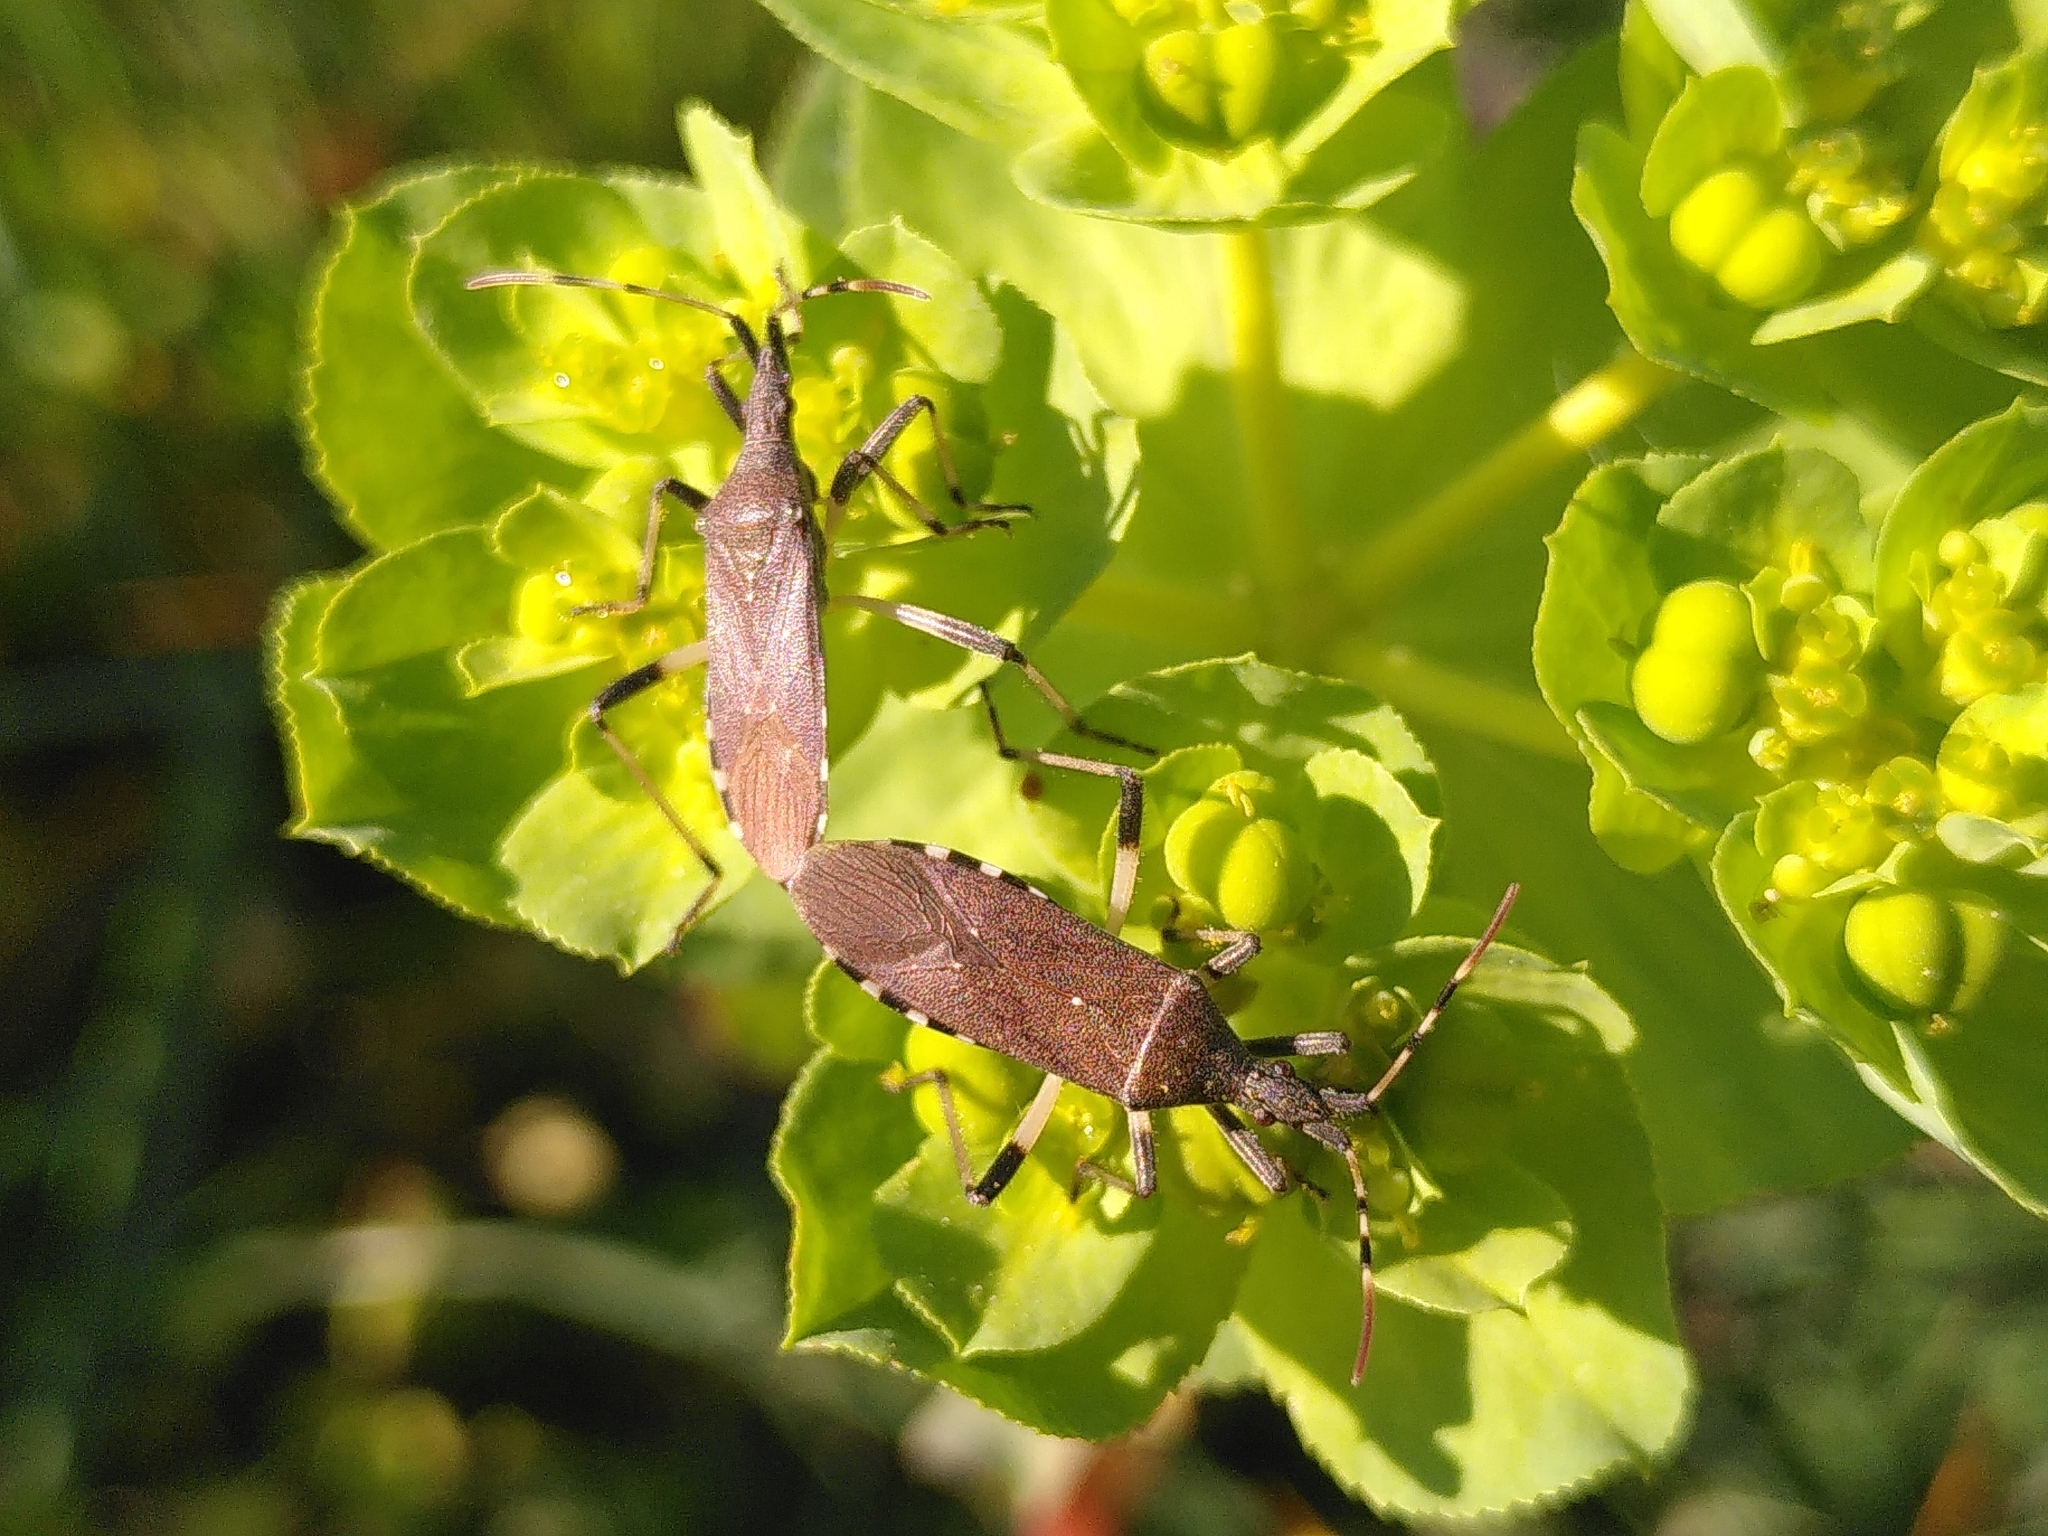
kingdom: Animalia
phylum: Arthropoda
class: Insecta
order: Hemiptera
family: Stenocephalidae
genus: Dicranocephalus
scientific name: Dicranocephalus albipes
